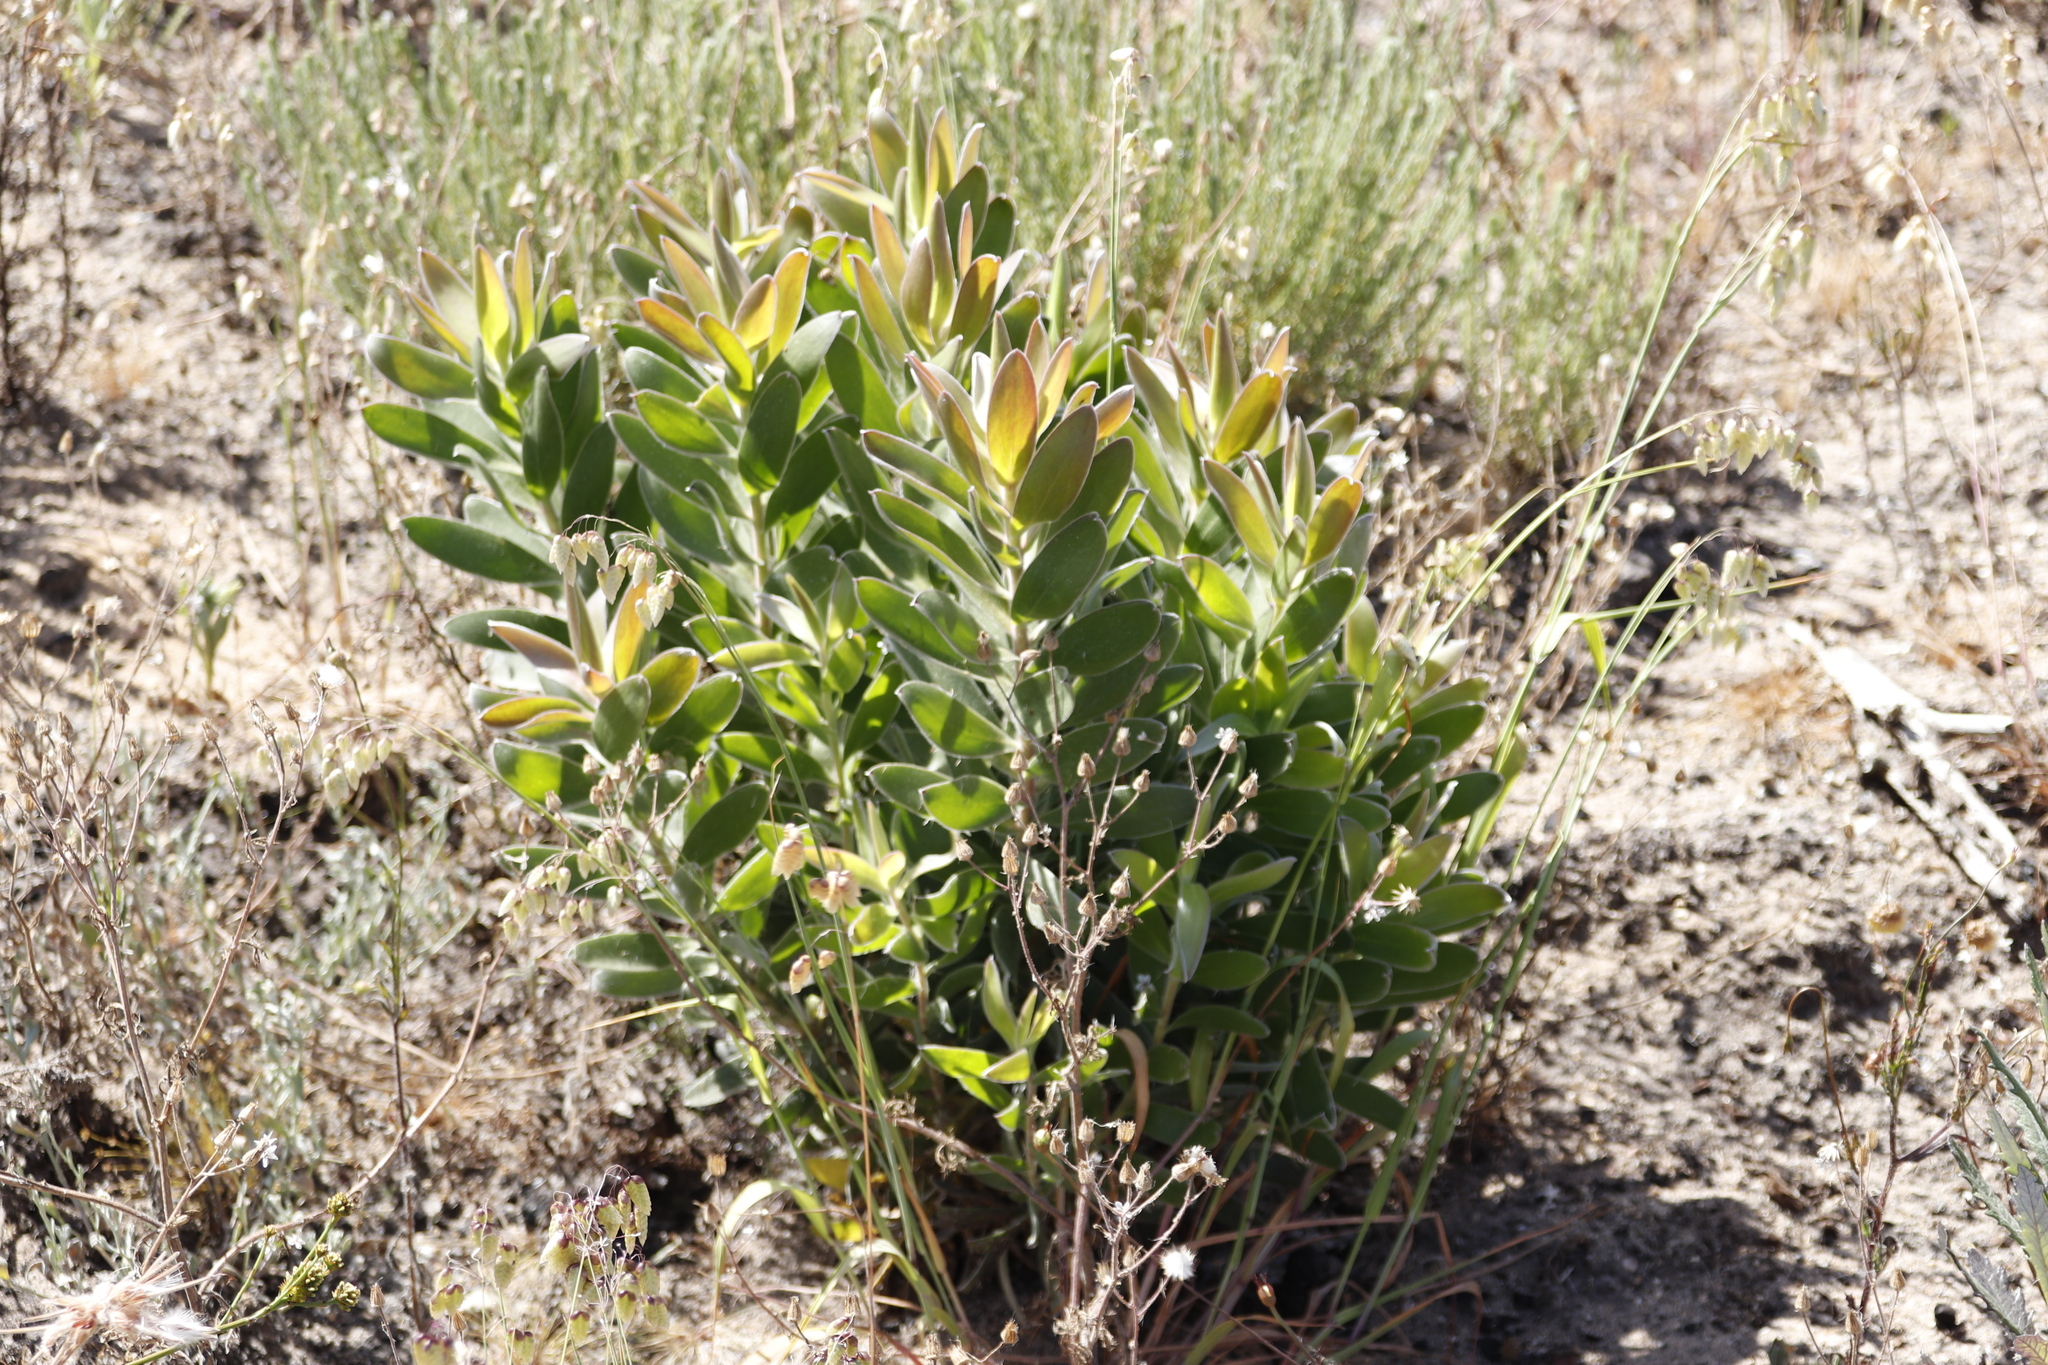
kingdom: Plantae
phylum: Tracheophyta
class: Magnoliopsida
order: Proteales
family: Proteaceae
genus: Leucadendron
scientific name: Leucadendron laureolum
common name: Golden sunshinebush
